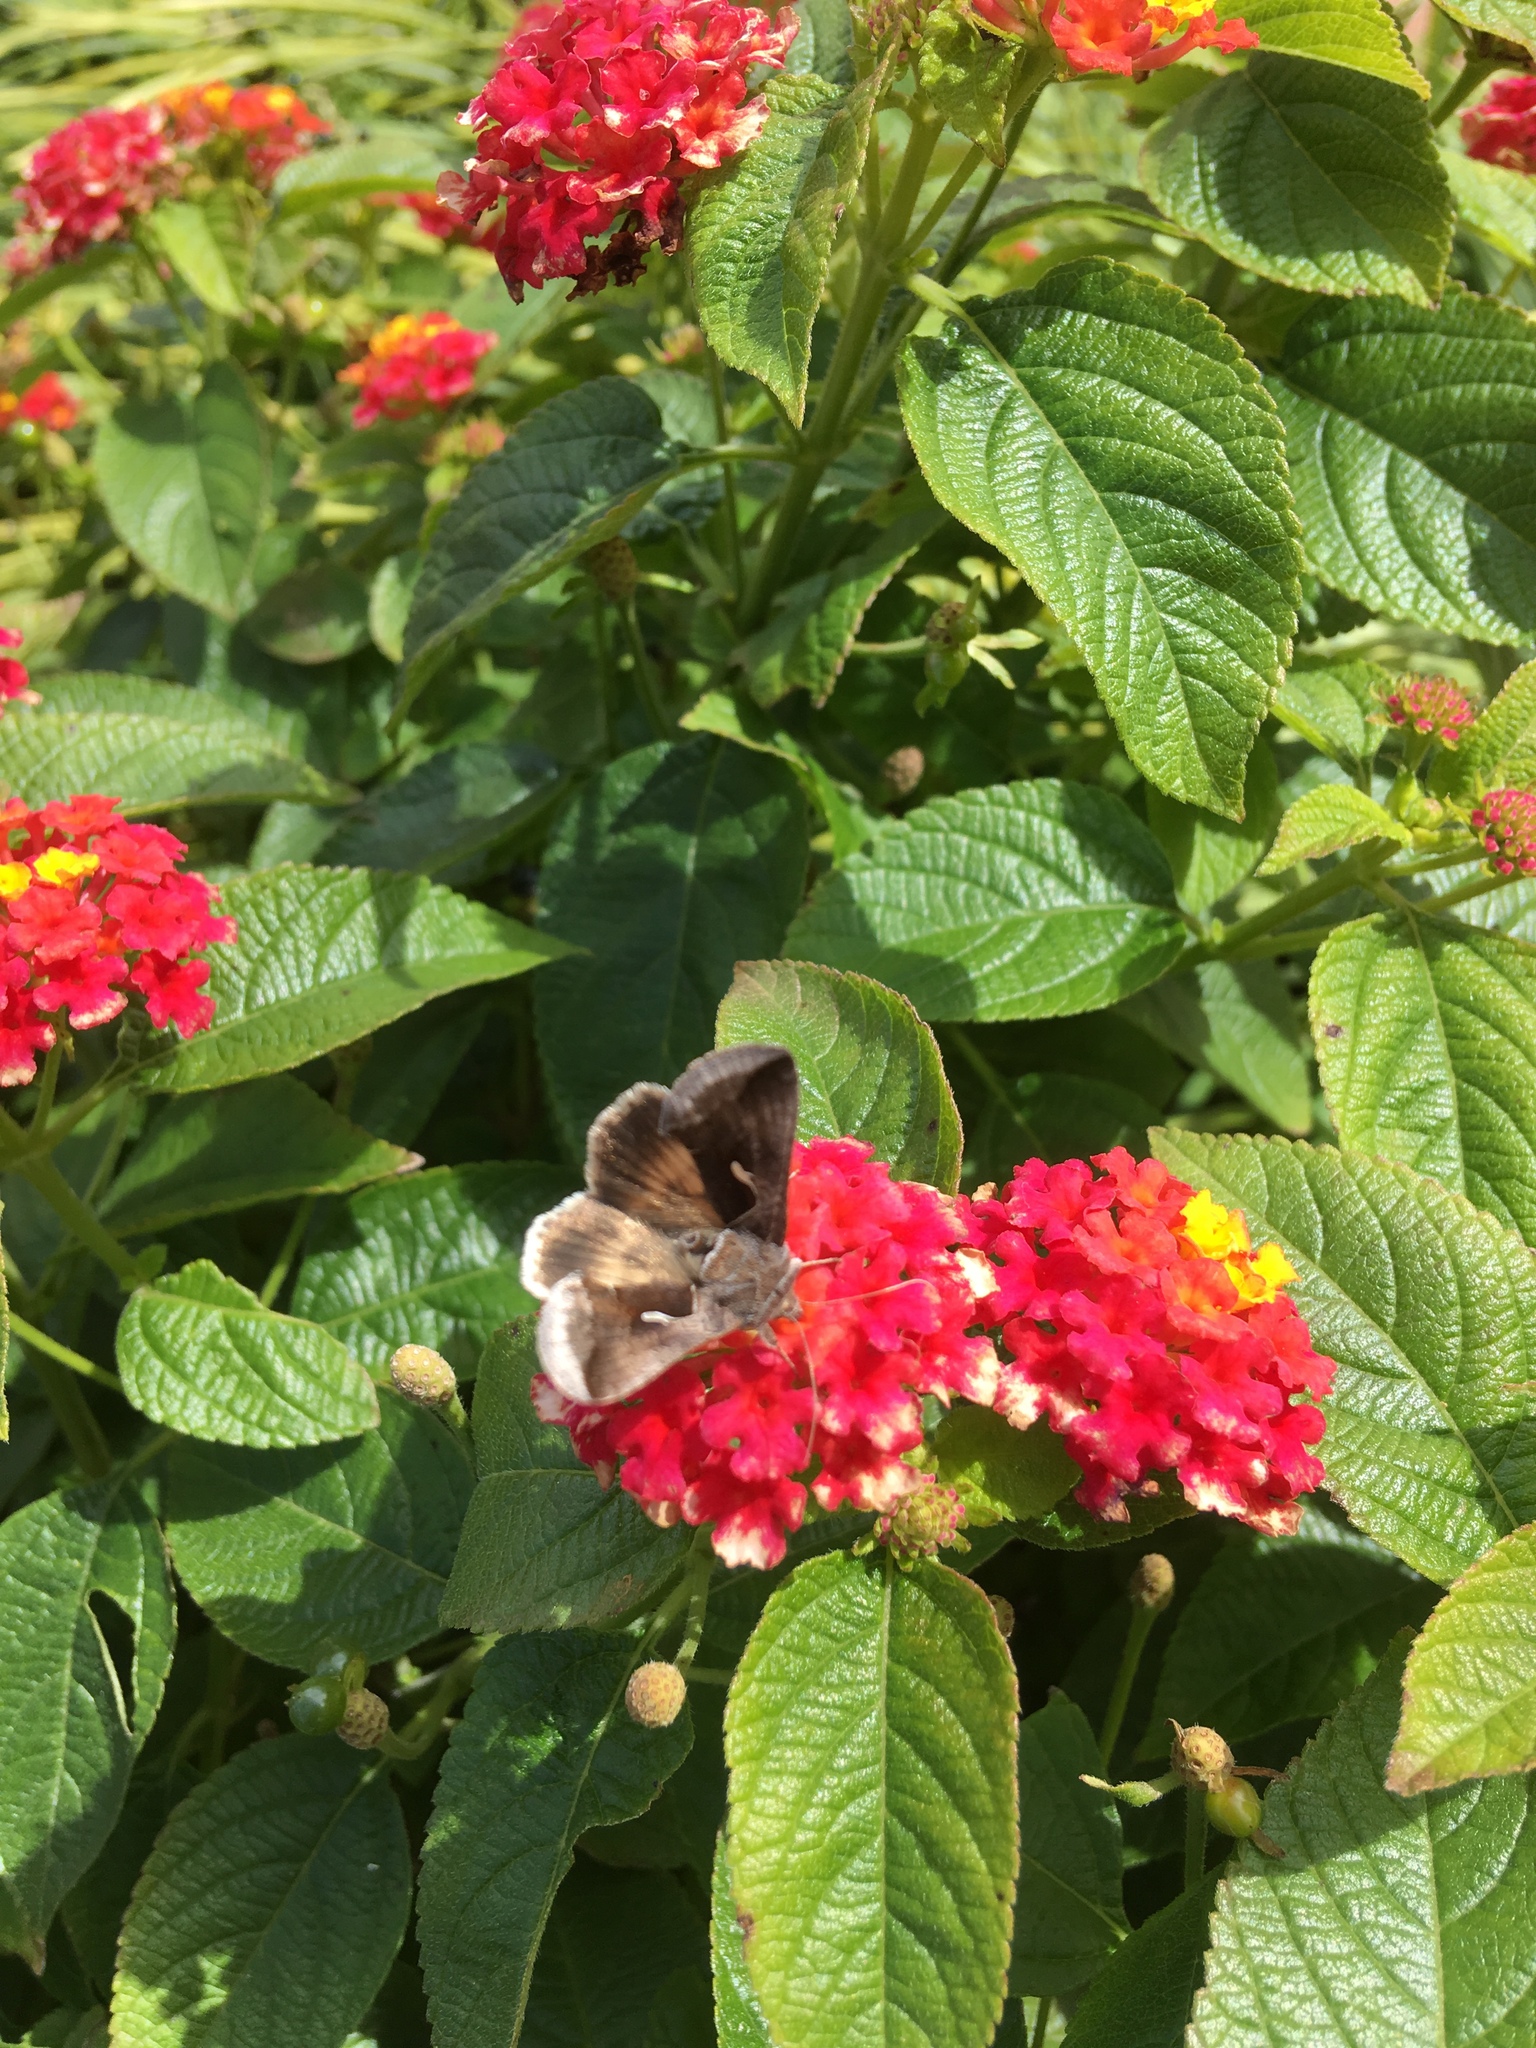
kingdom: Animalia
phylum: Arthropoda
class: Insecta
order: Lepidoptera
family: Noctuidae
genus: Anagrapha
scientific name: Anagrapha falcifera
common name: Celery looper
